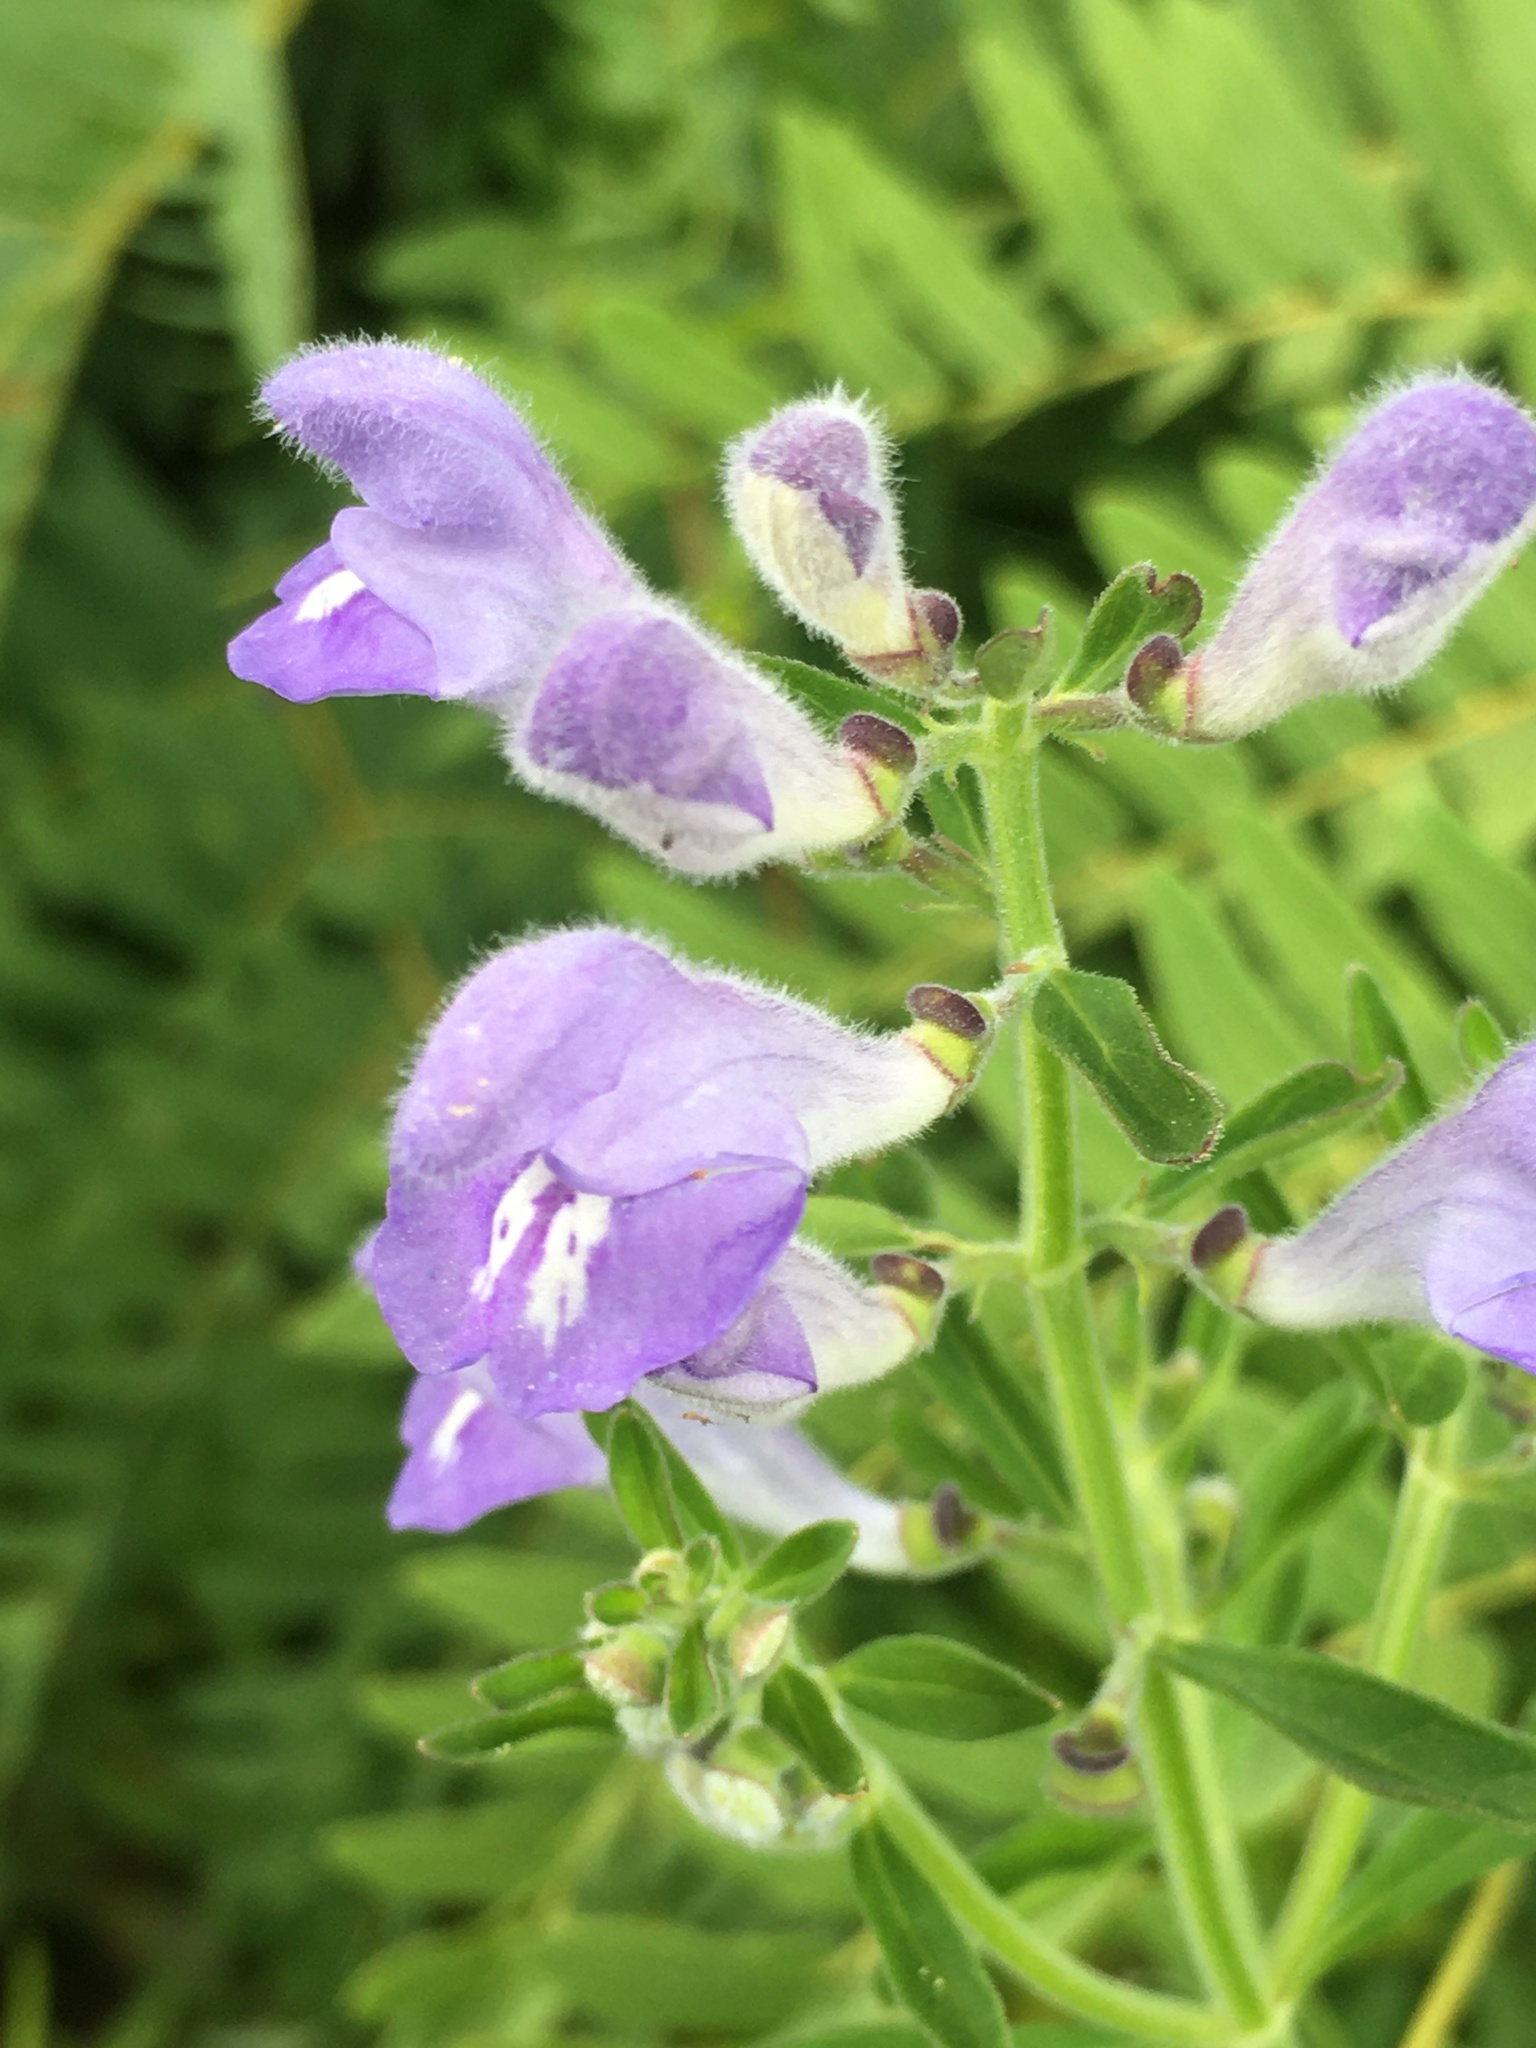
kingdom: Plantae
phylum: Tracheophyta
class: Magnoliopsida
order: Lamiales
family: Lamiaceae
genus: Scutellaria
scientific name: Scutellaria integrifolia
